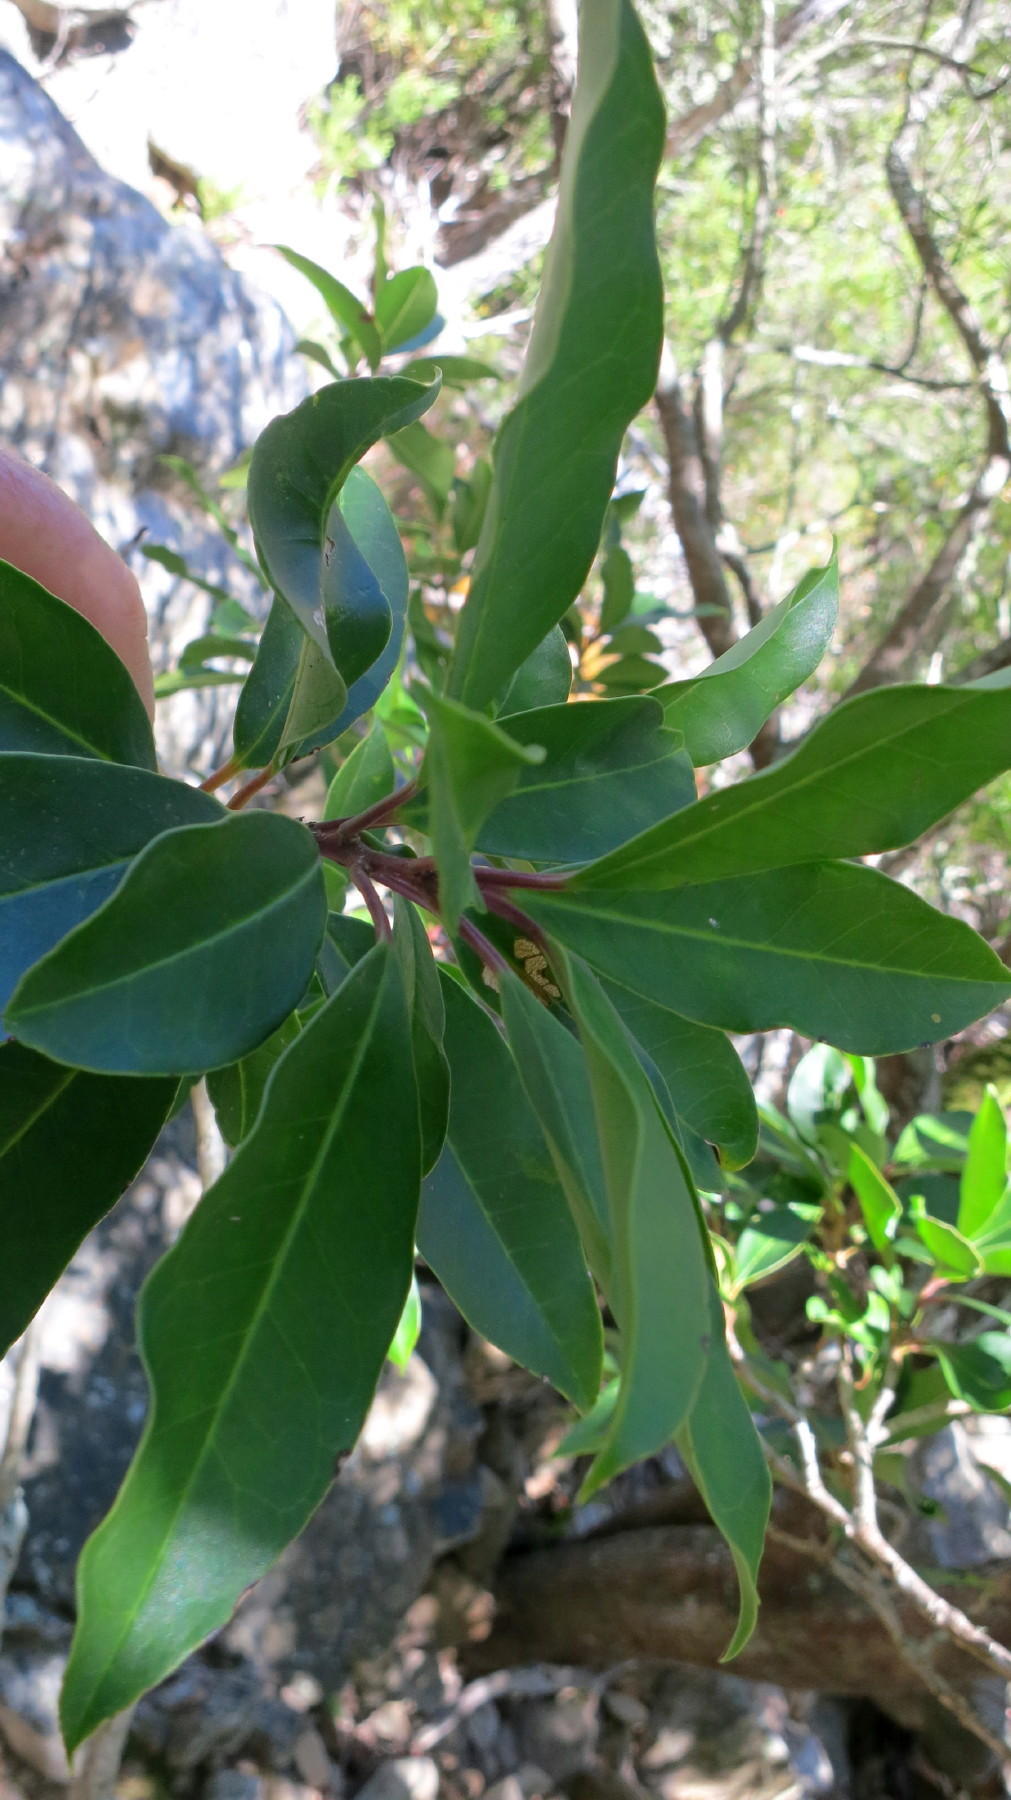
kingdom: Plantae
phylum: Tracheophyta
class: Magnoliopsida
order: Aquifoliales
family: Aquifoliaceae
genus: Ilex
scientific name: Ilex mitis
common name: African holly
